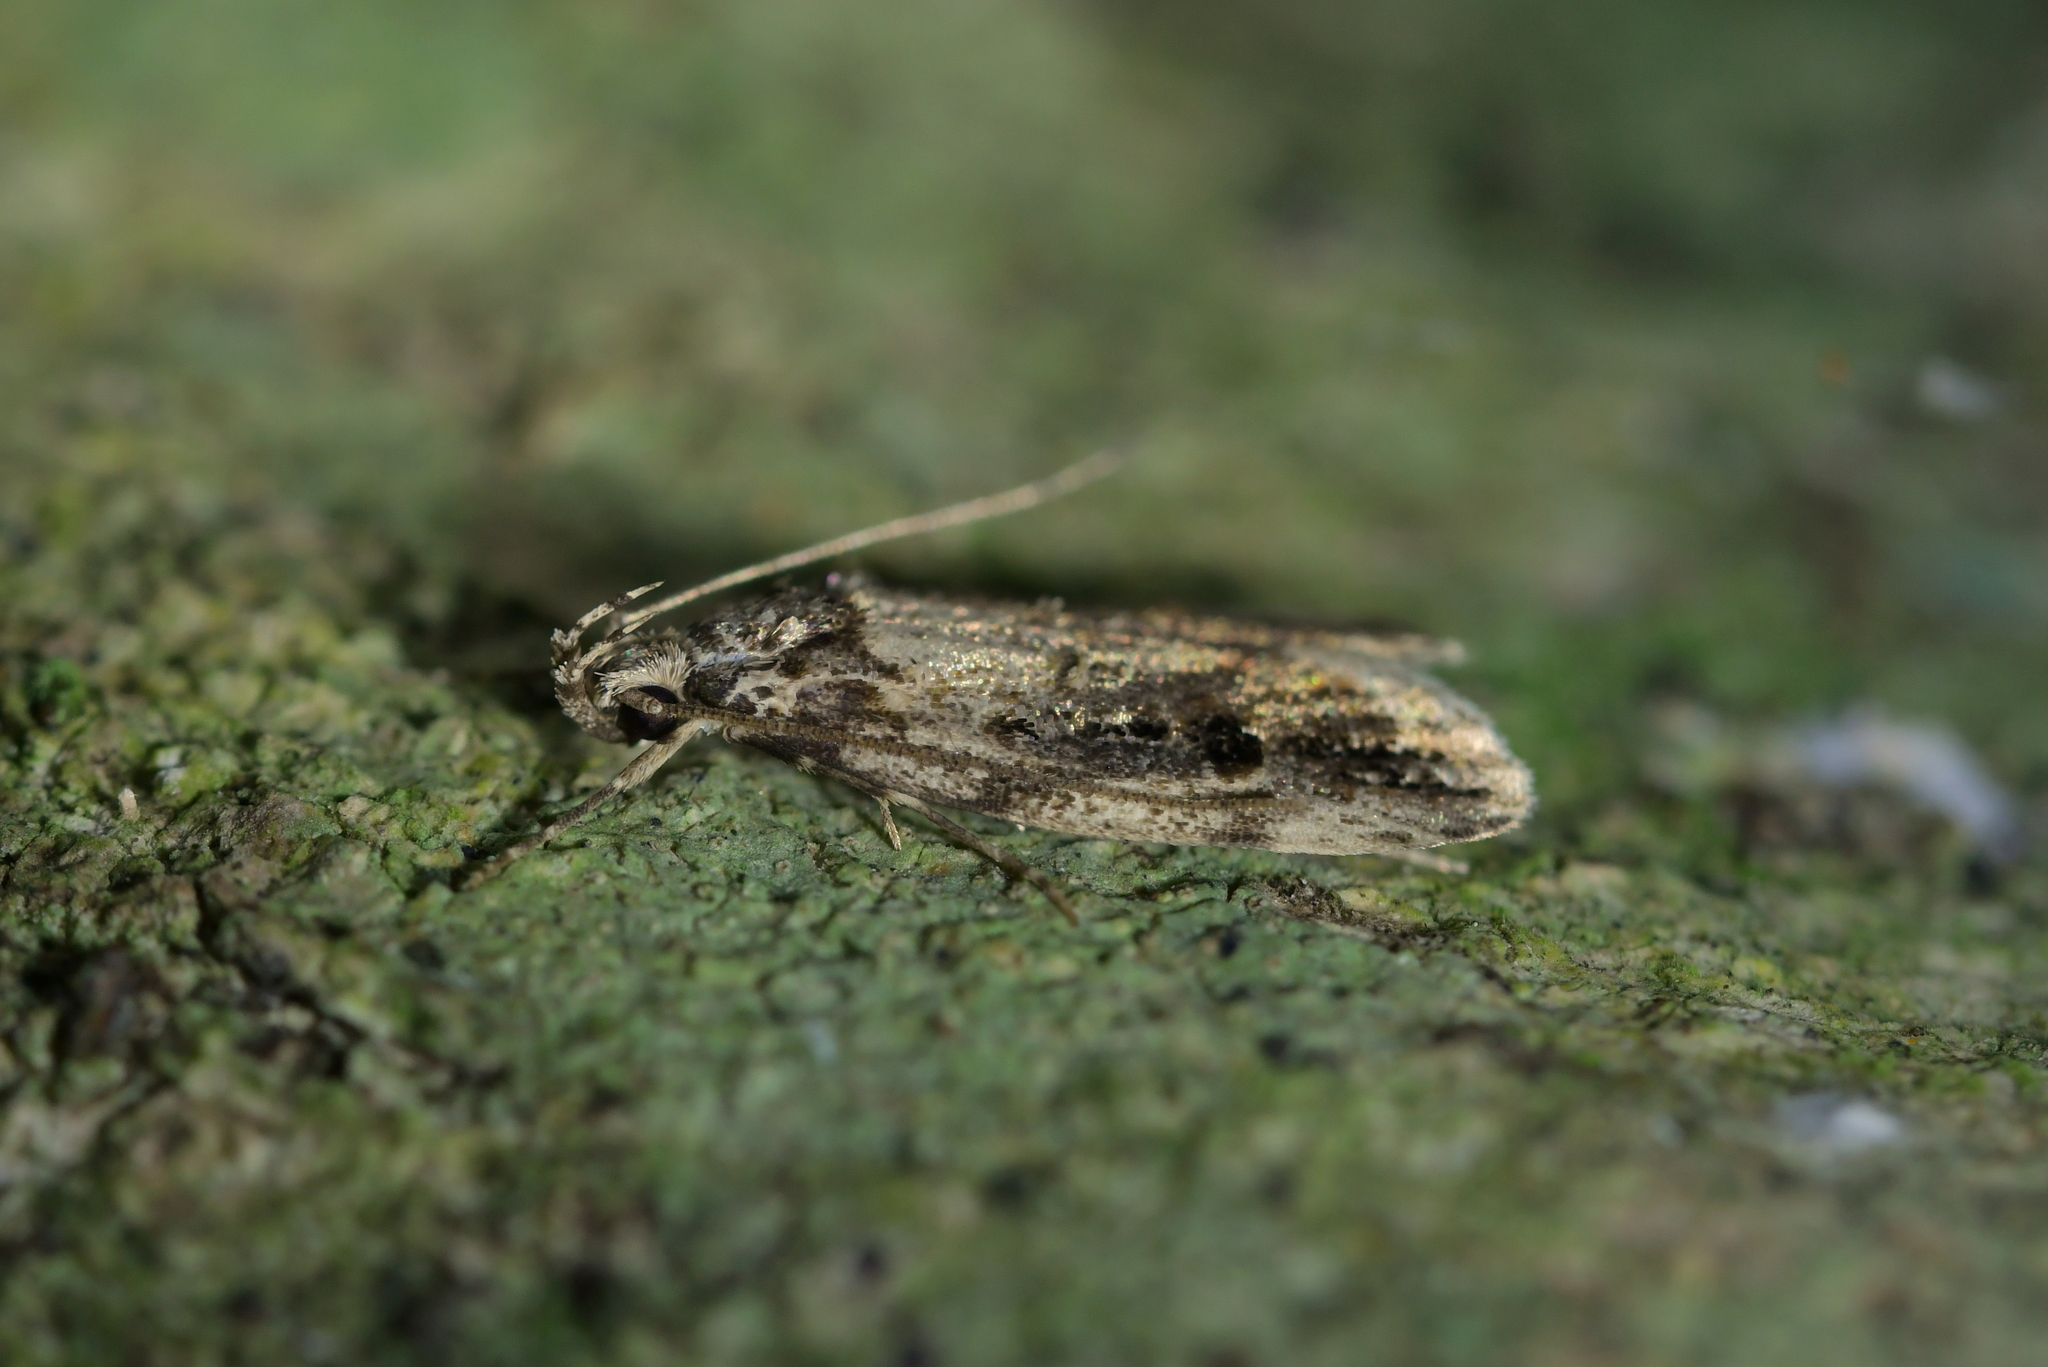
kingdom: Animalia
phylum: Arthropoda
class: Insecta
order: Lepidoptera
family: Oecophoridae
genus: Izatha
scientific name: Izatha caustopa
